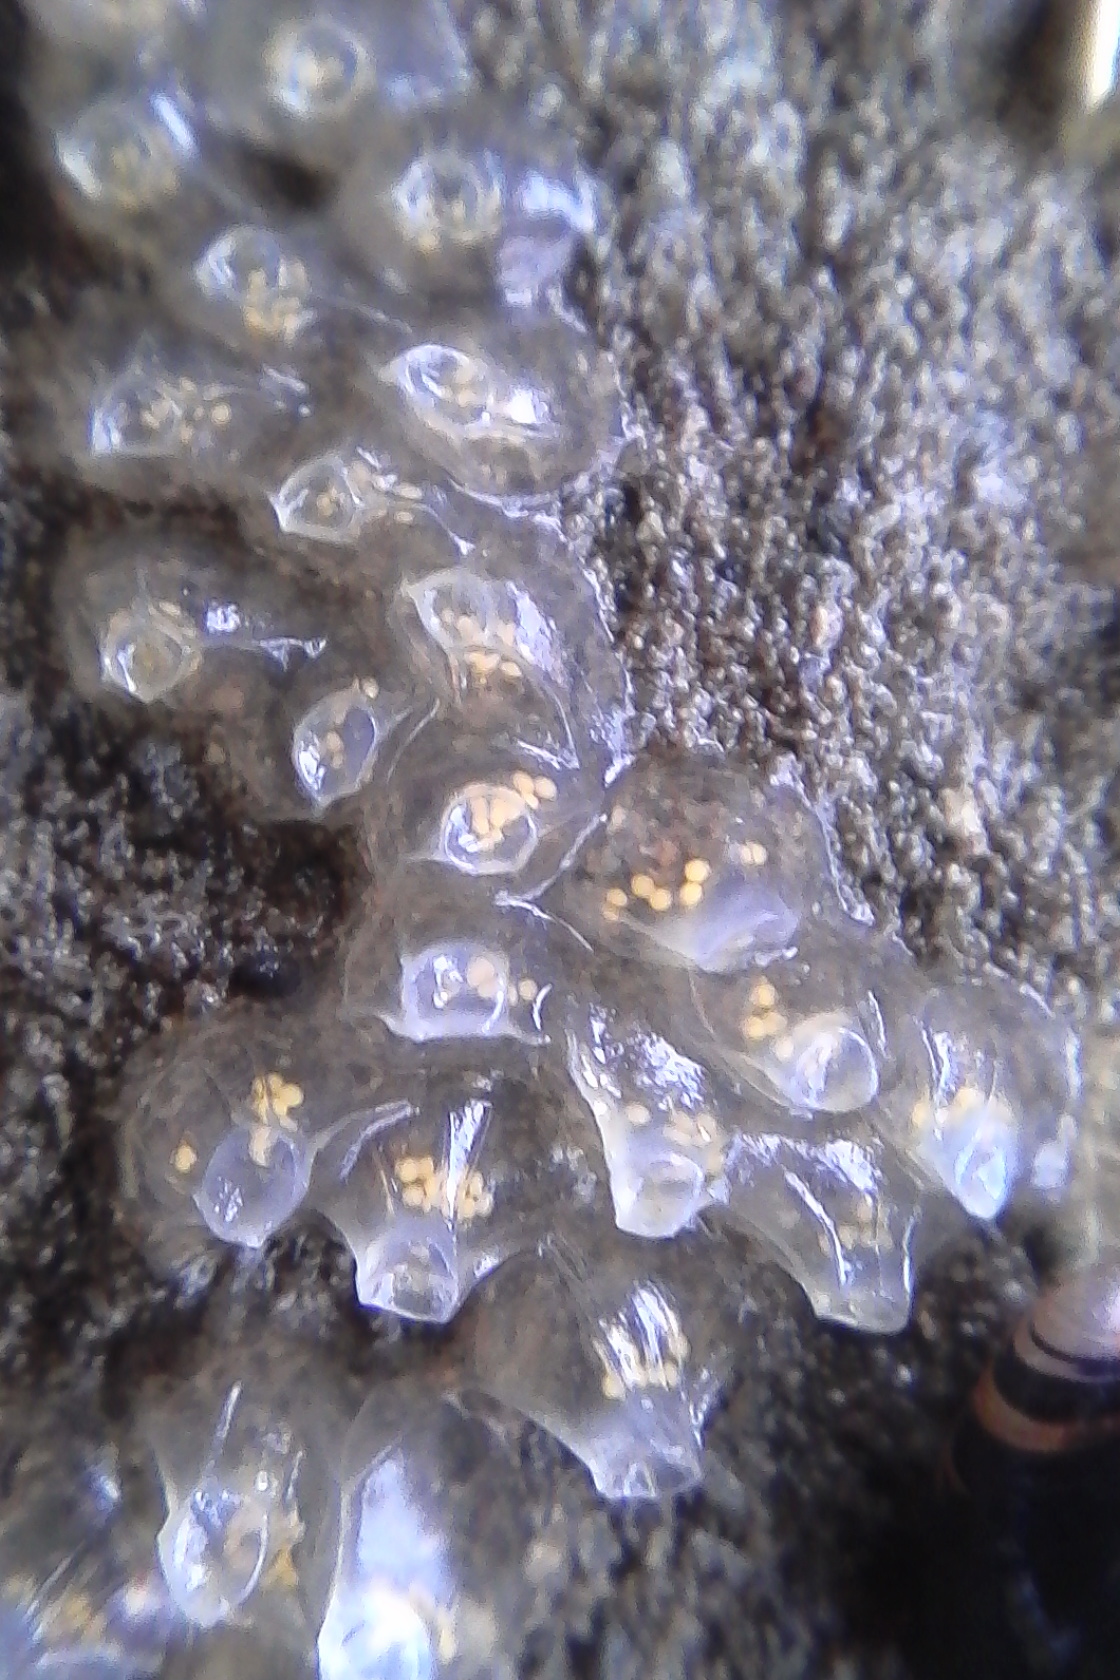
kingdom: Animalia
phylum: Mollusca
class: Gastropoda
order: Neogastropoda
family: Cominellidae
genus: Cominella
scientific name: Cominella glandiformis
